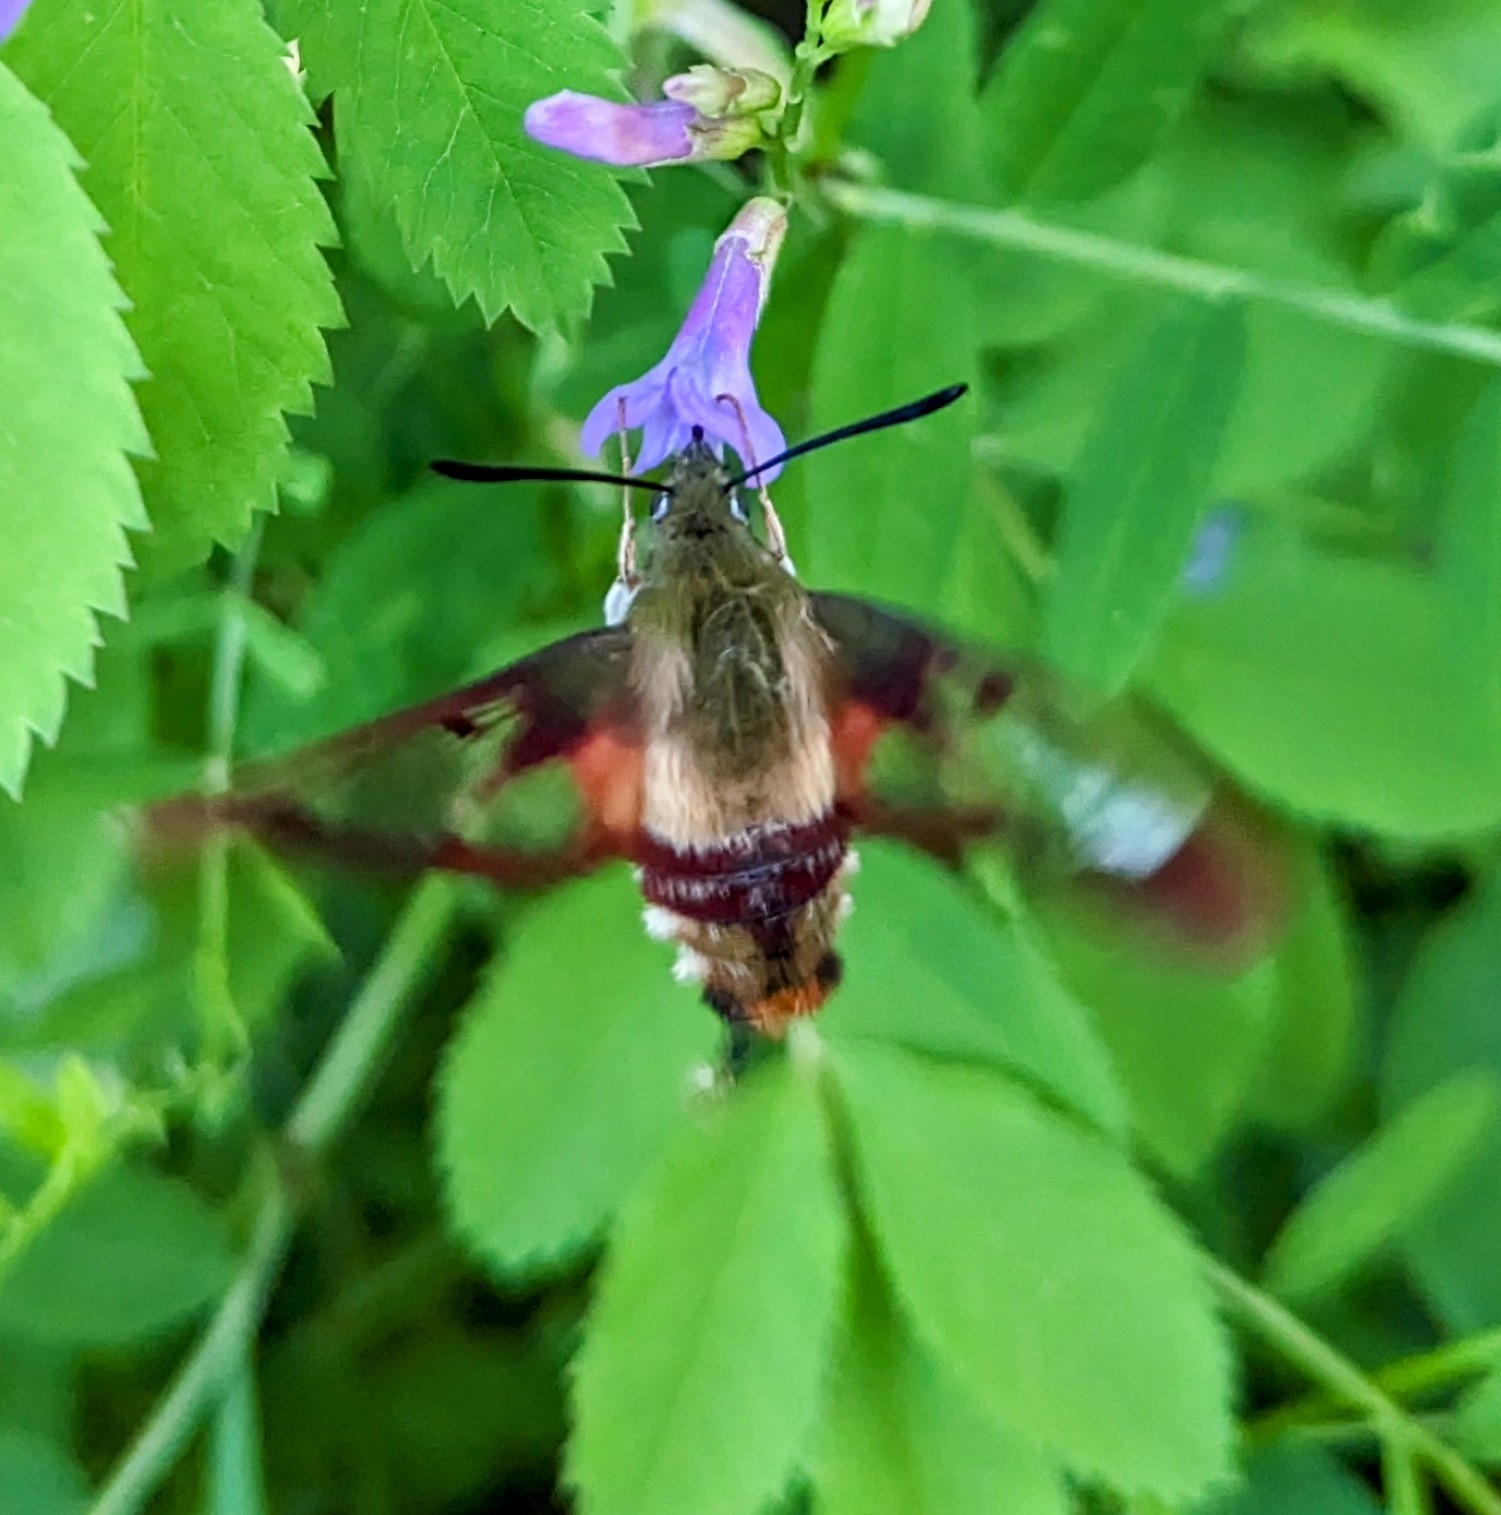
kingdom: Animalia
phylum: Arthropoda
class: Insecta
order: Lepidoptera
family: Sphingidae
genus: Hemaris
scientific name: Hemaris thysbe
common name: Common clear-wing
